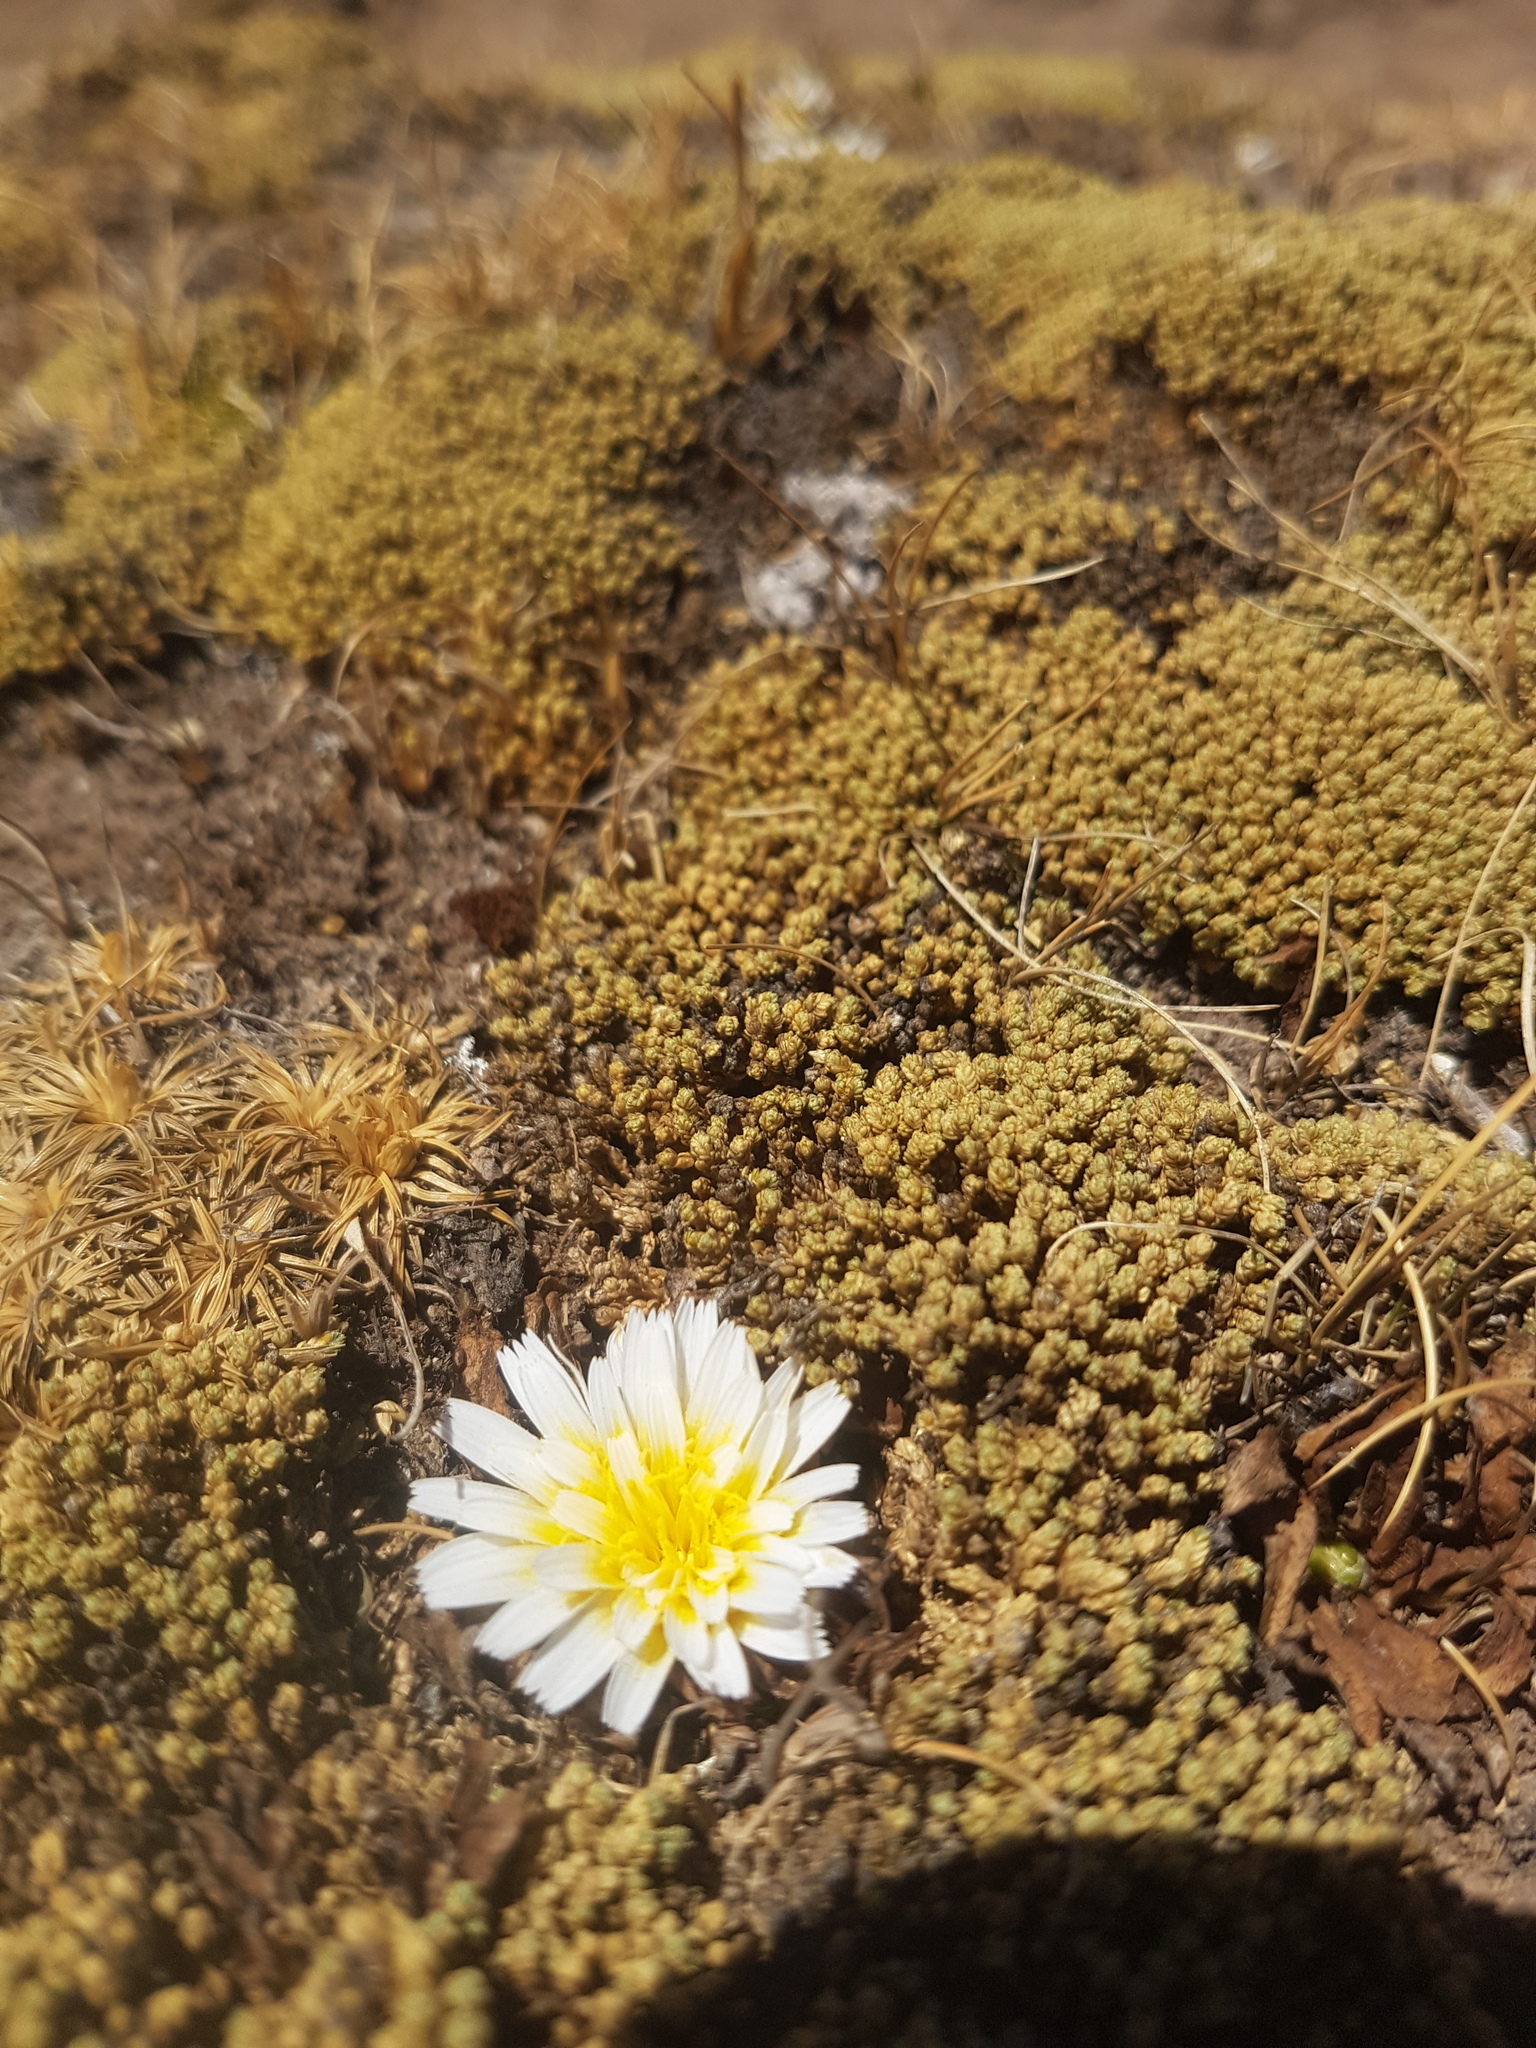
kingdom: Plantae
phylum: Tracheophyta
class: Magnoliopsida
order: Asterales
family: Asteraceae
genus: Hypochaeris
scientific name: Hypochaeris taraxacoides
